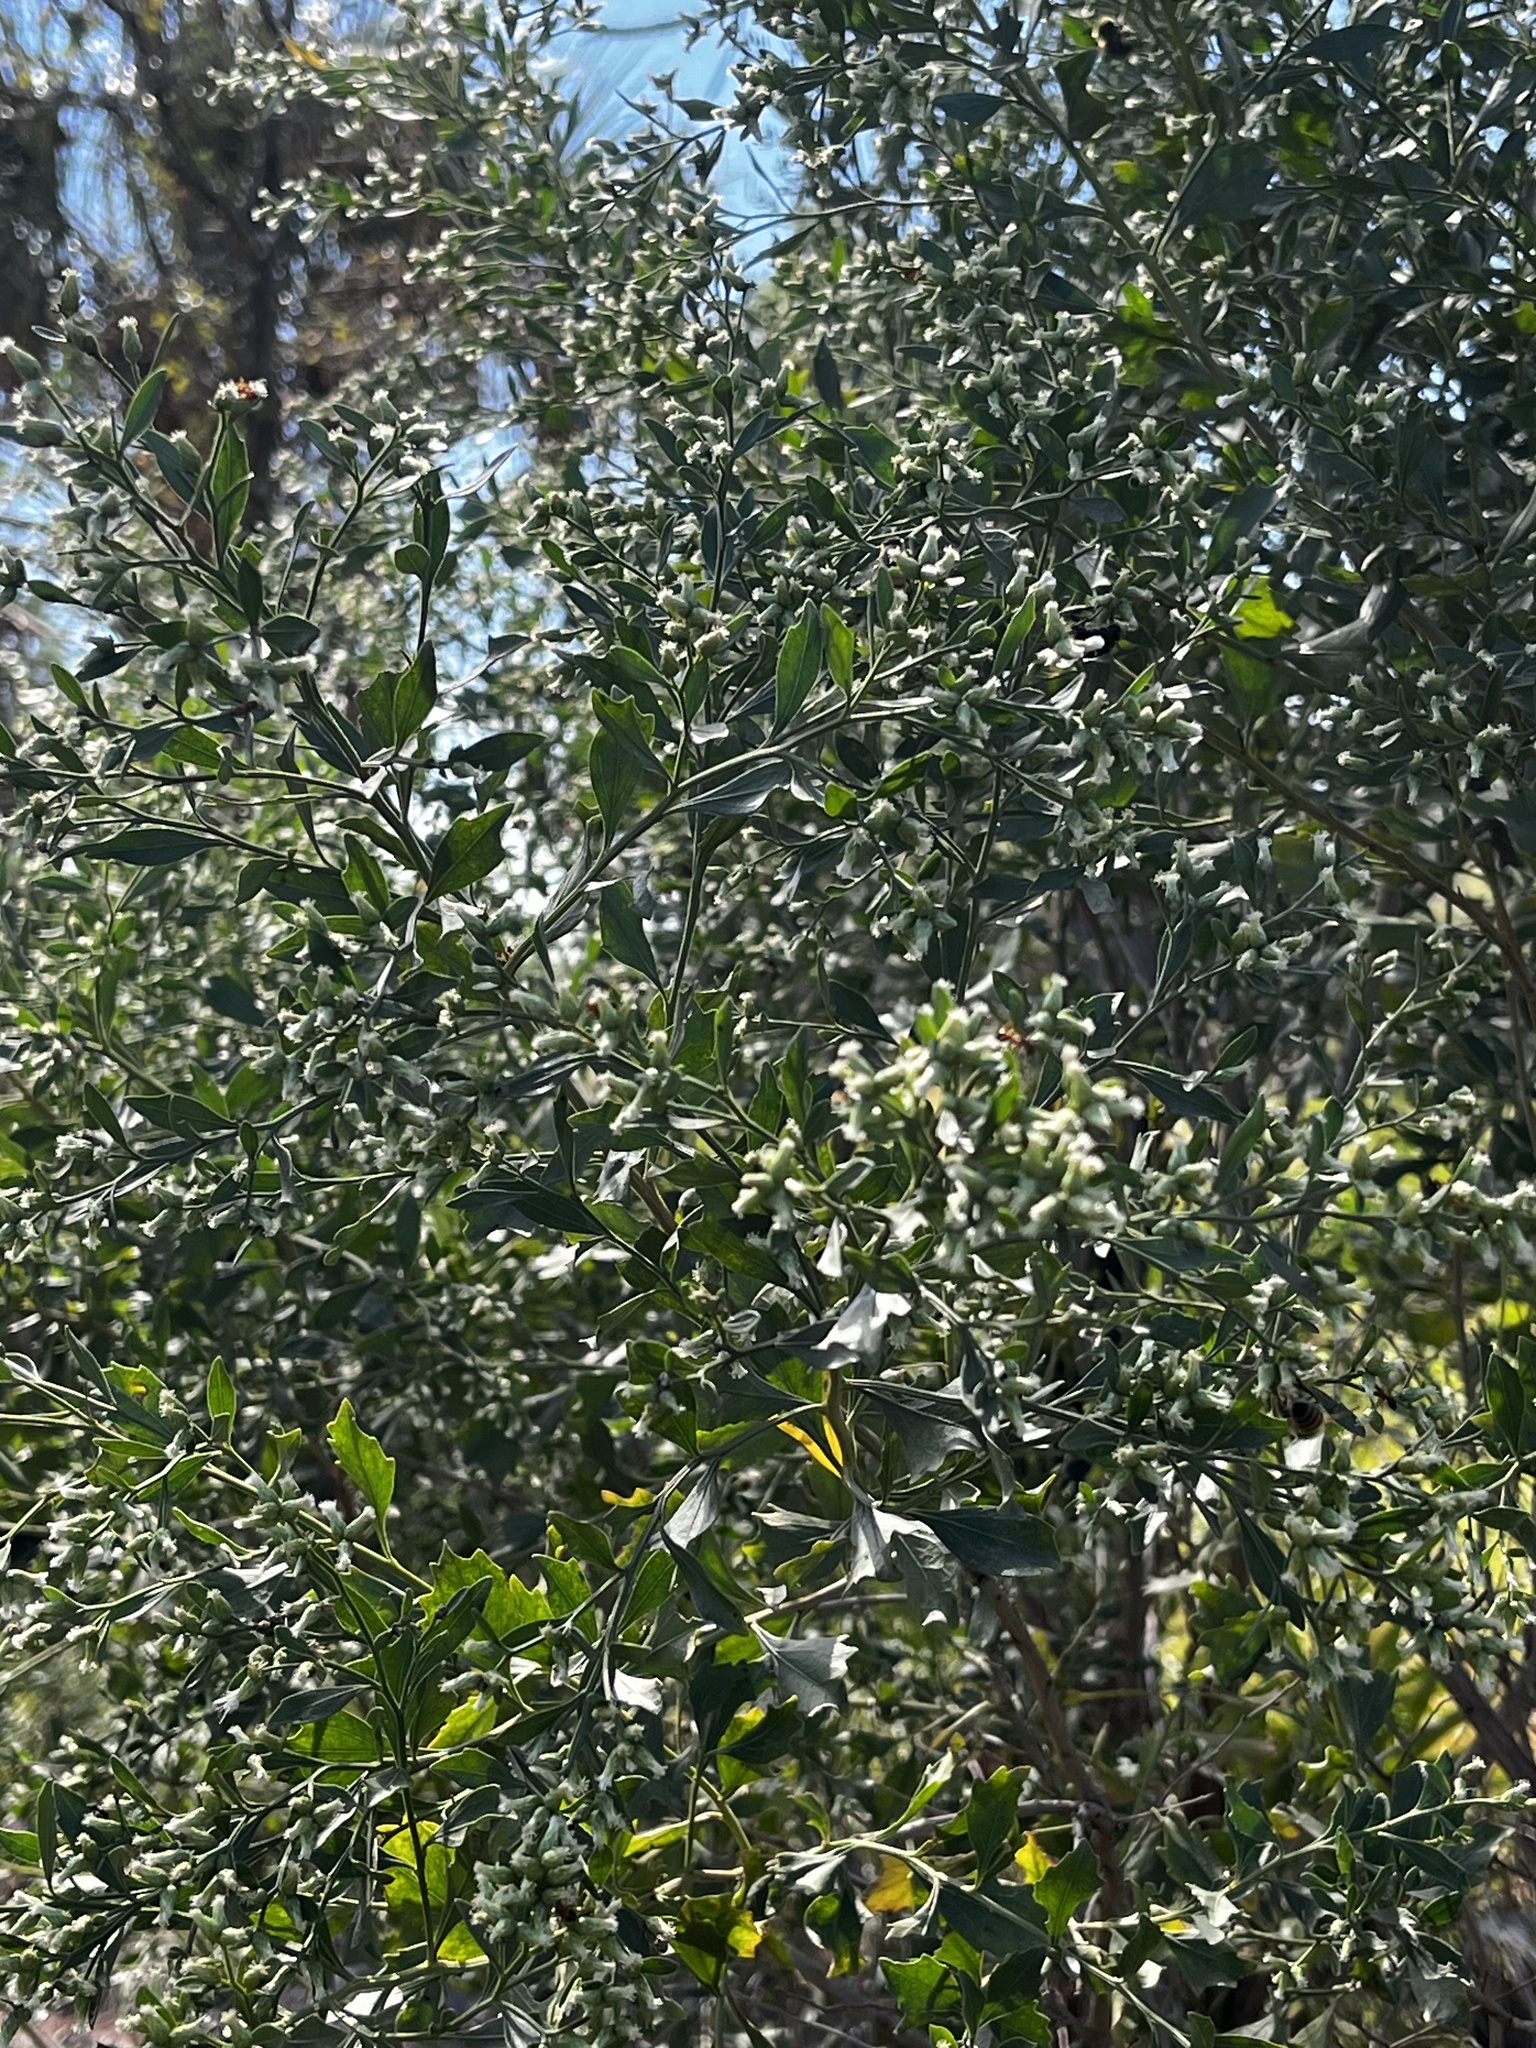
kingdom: Plantae
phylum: Tracheophyta
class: Magnoliopsida
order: Asterales
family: Asteraceae
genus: Baccharis
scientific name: Baccharis halimifolia
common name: Eastern baccharis
